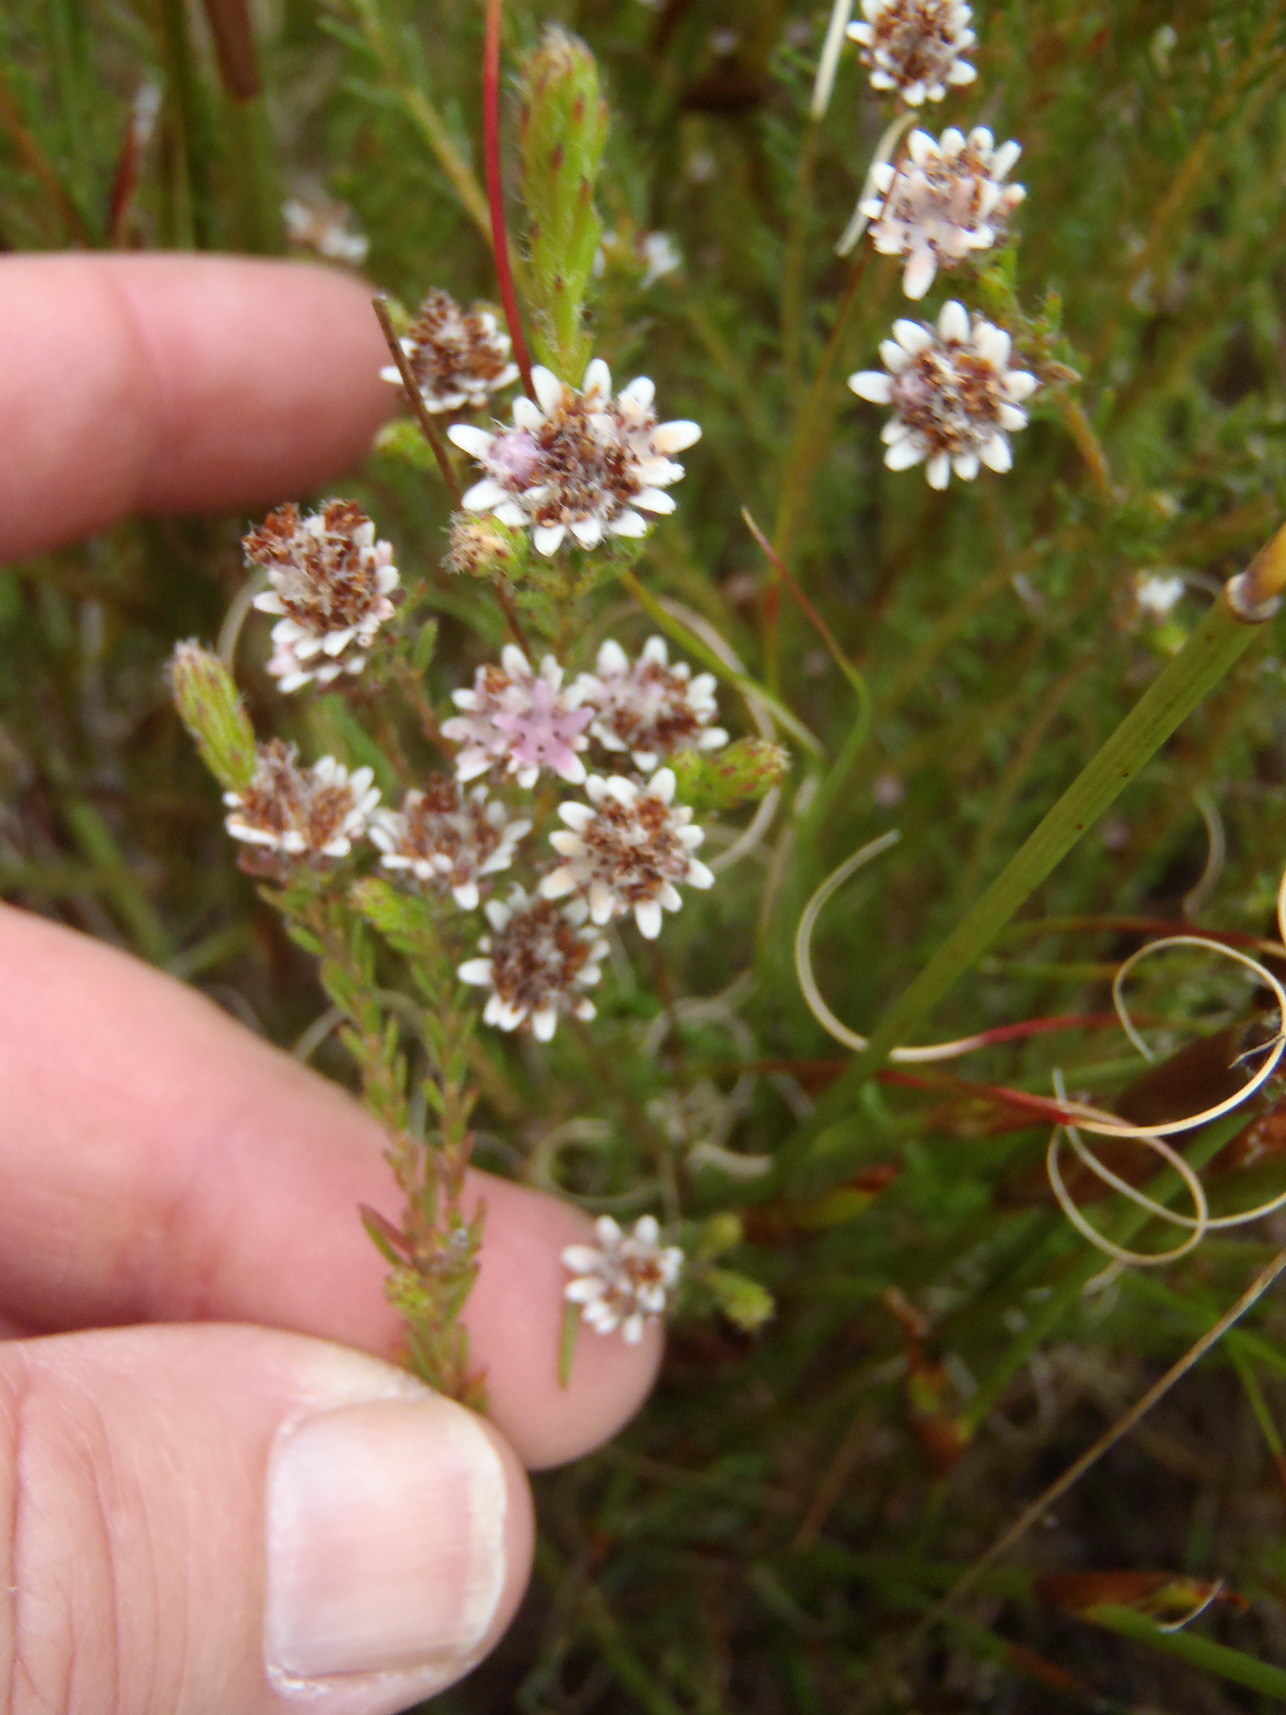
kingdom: Plantae
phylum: Tracheophyta
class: Magnoliopsida
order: Bruniales
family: Bruniaceae
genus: Staavia
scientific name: Staavia radiata
